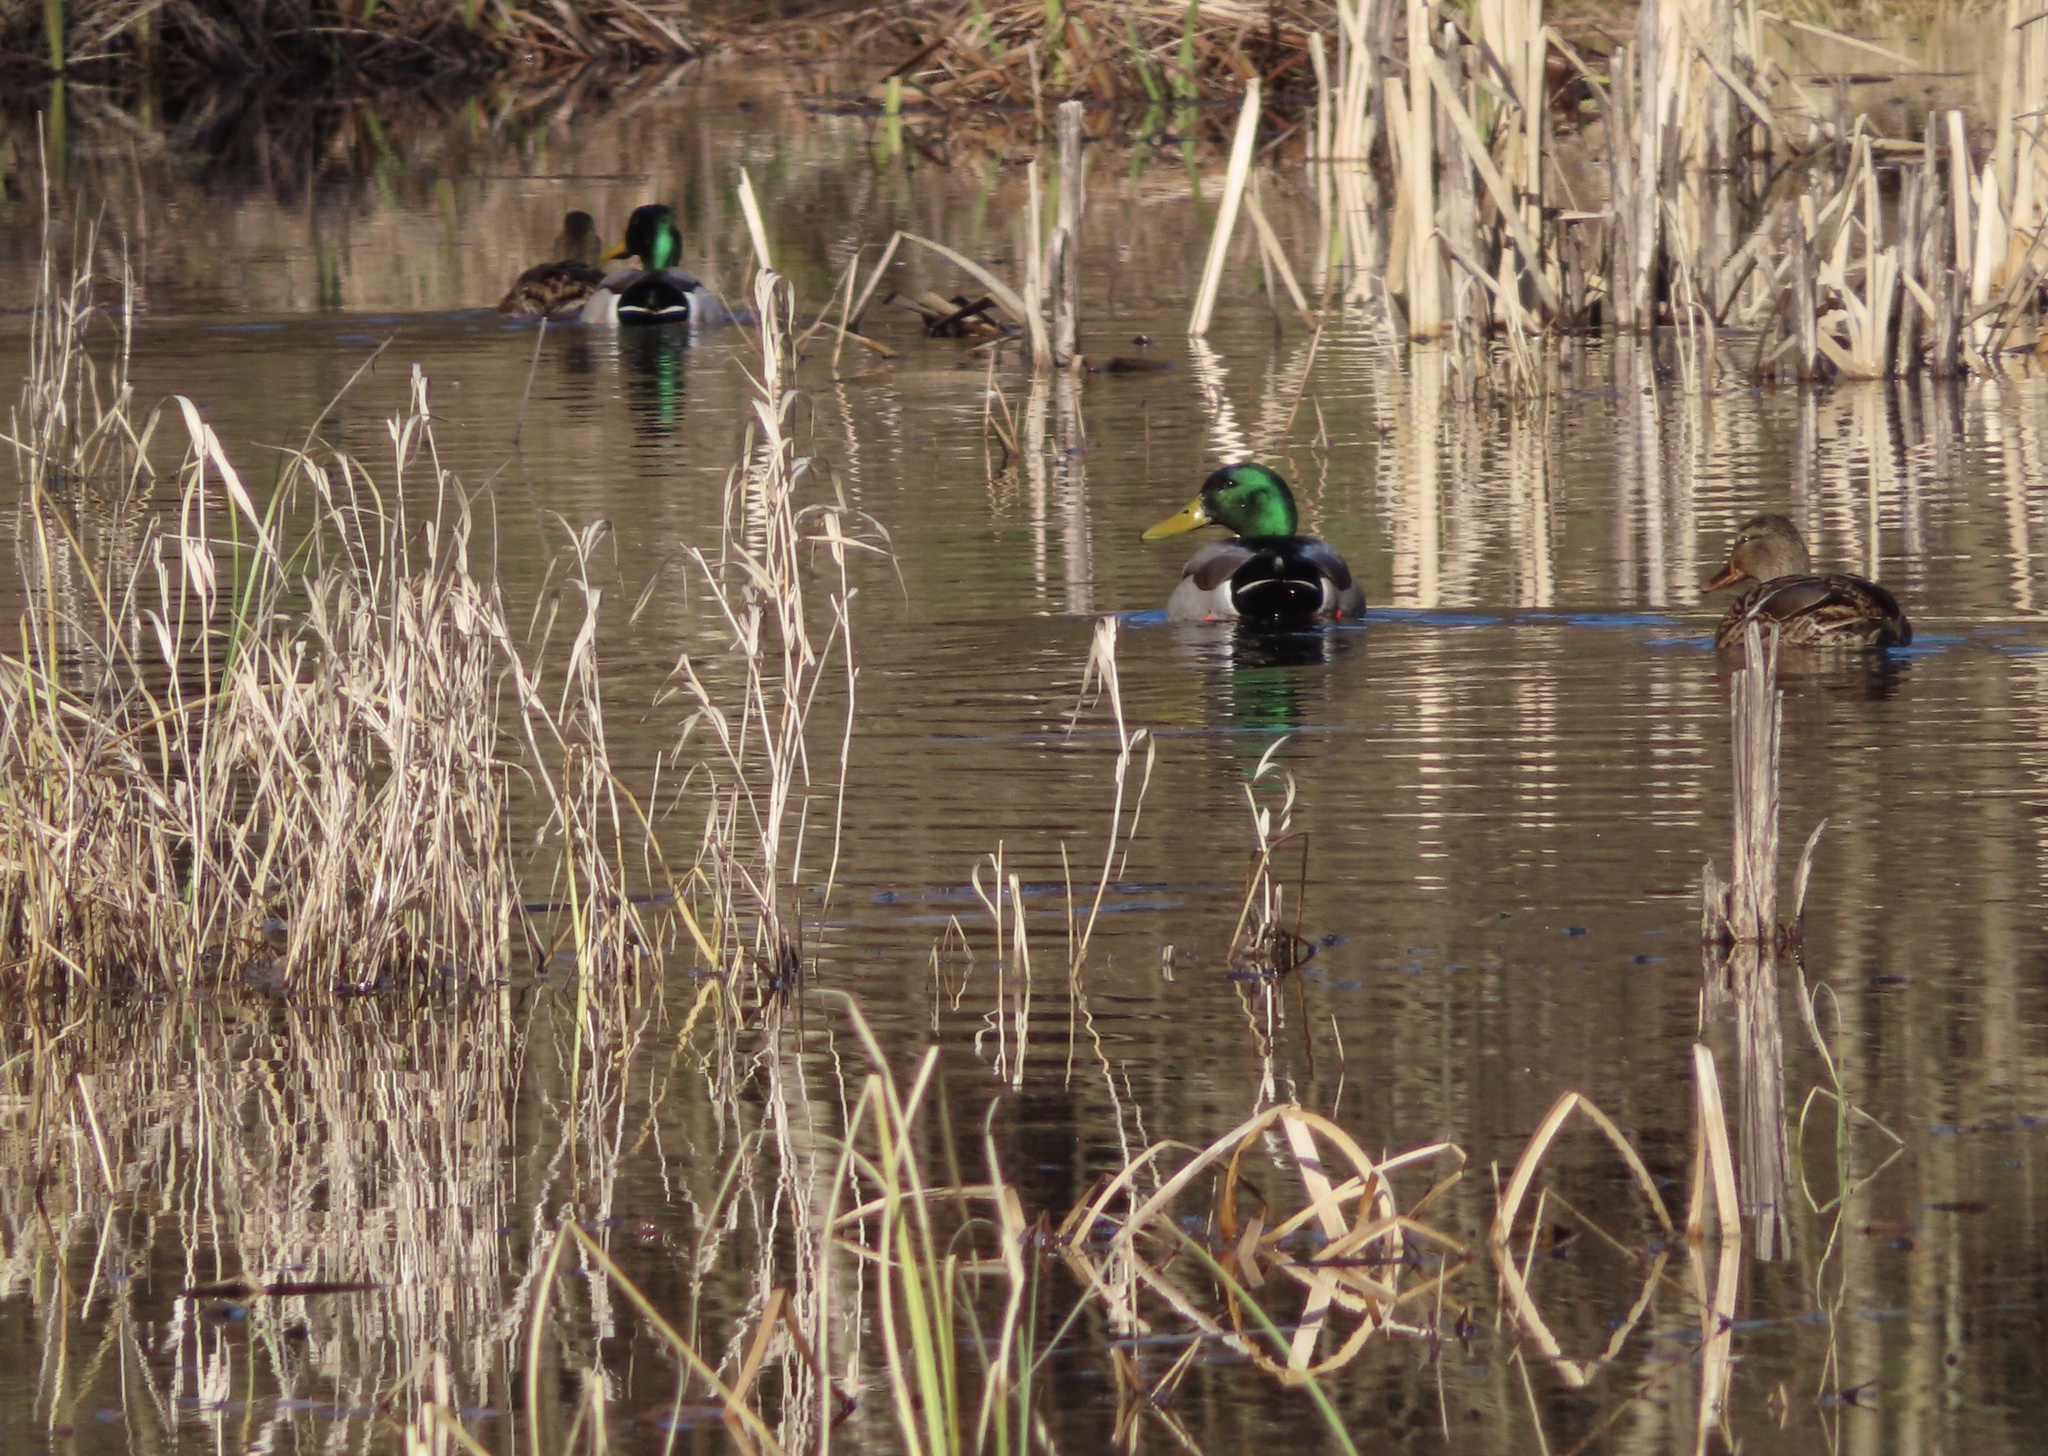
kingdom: Animalia
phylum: Chordata
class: Aves
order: Anseriformes
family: Anatidae
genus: Anas
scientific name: Anas platyrhynchos
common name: Mallard
